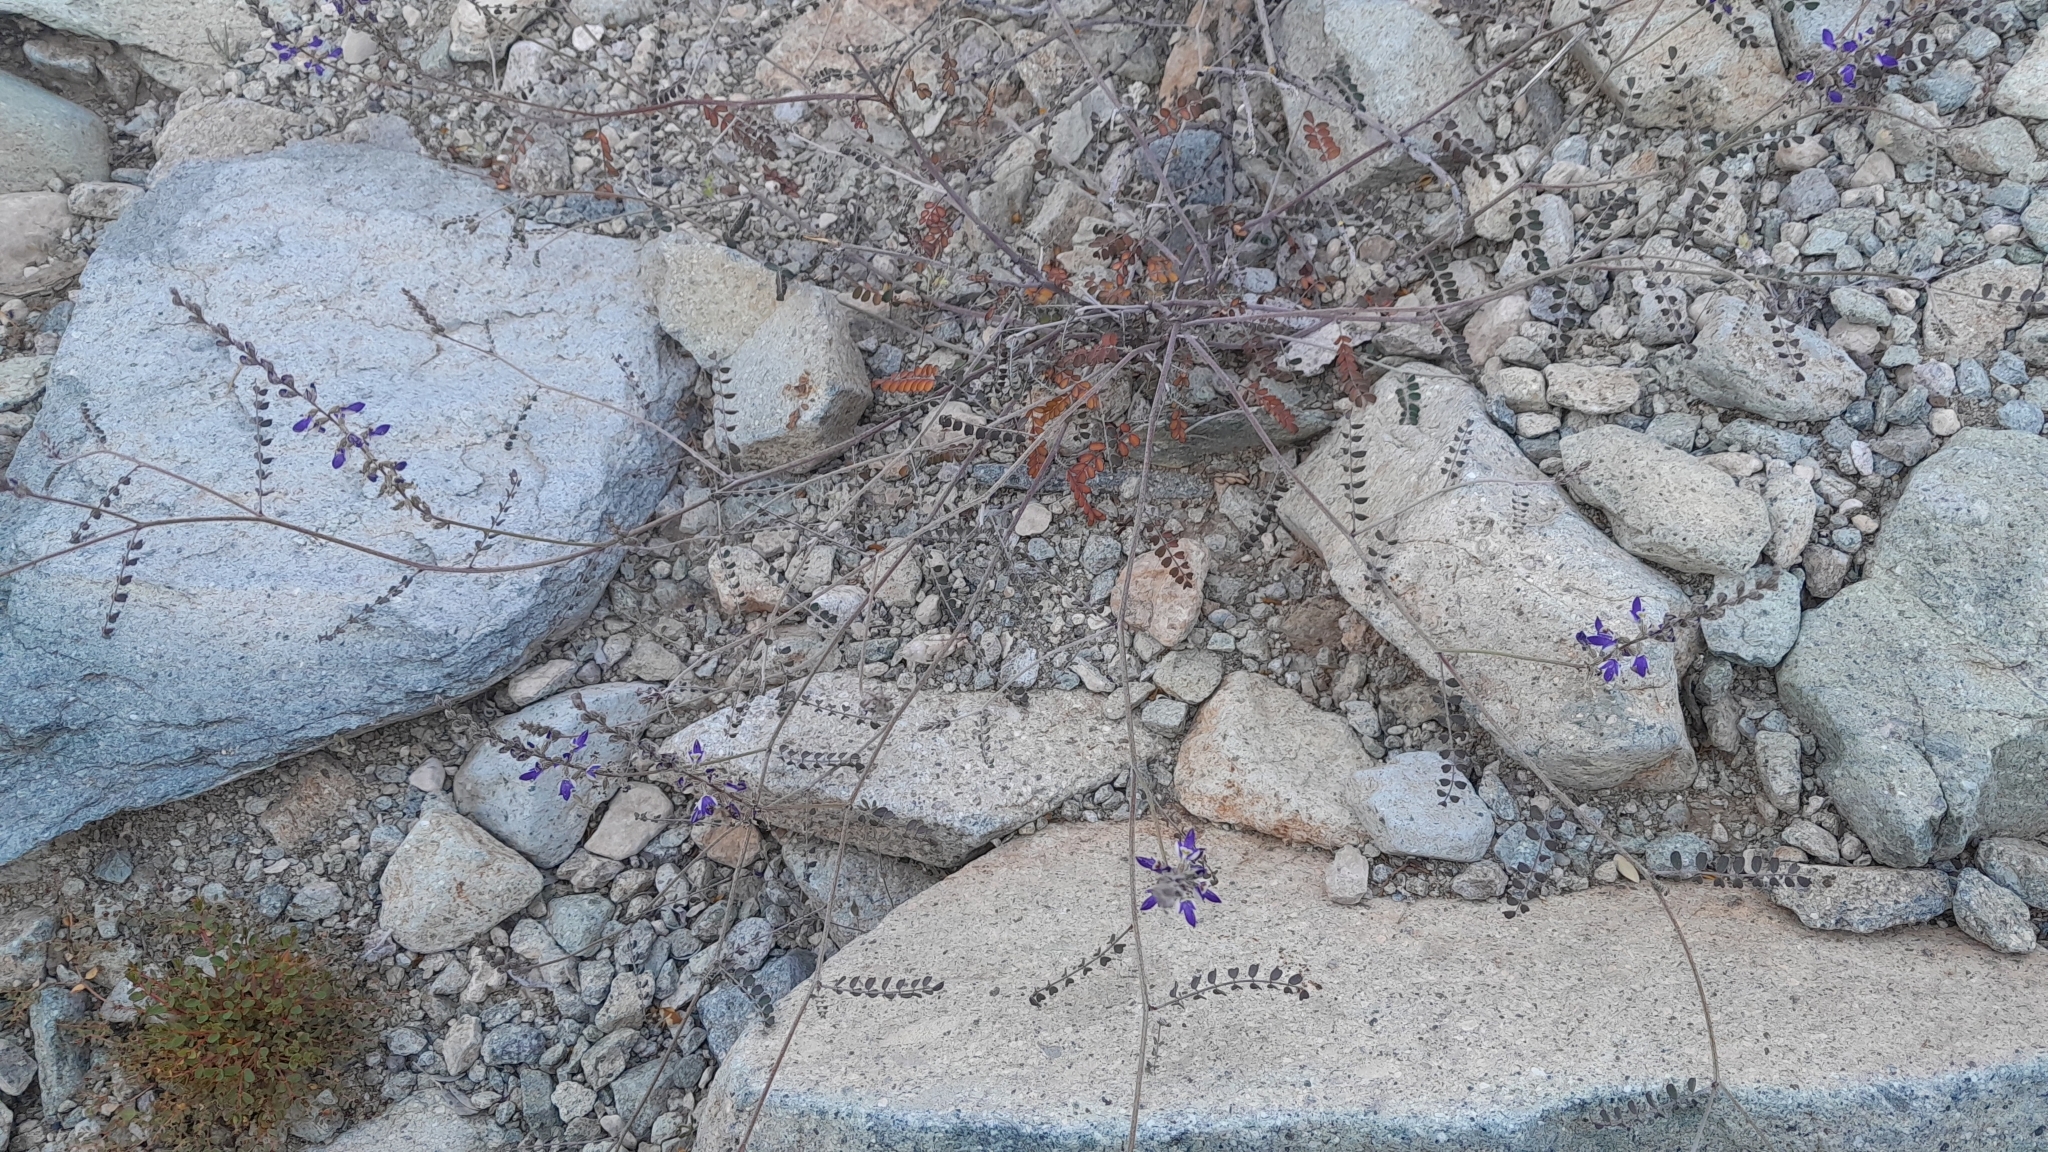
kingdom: Plantae
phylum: Tracheophyta
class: Magnoliopsida
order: Fabales
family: Fabaceae
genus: Marina
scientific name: Marina parryi
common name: Parry's marina
